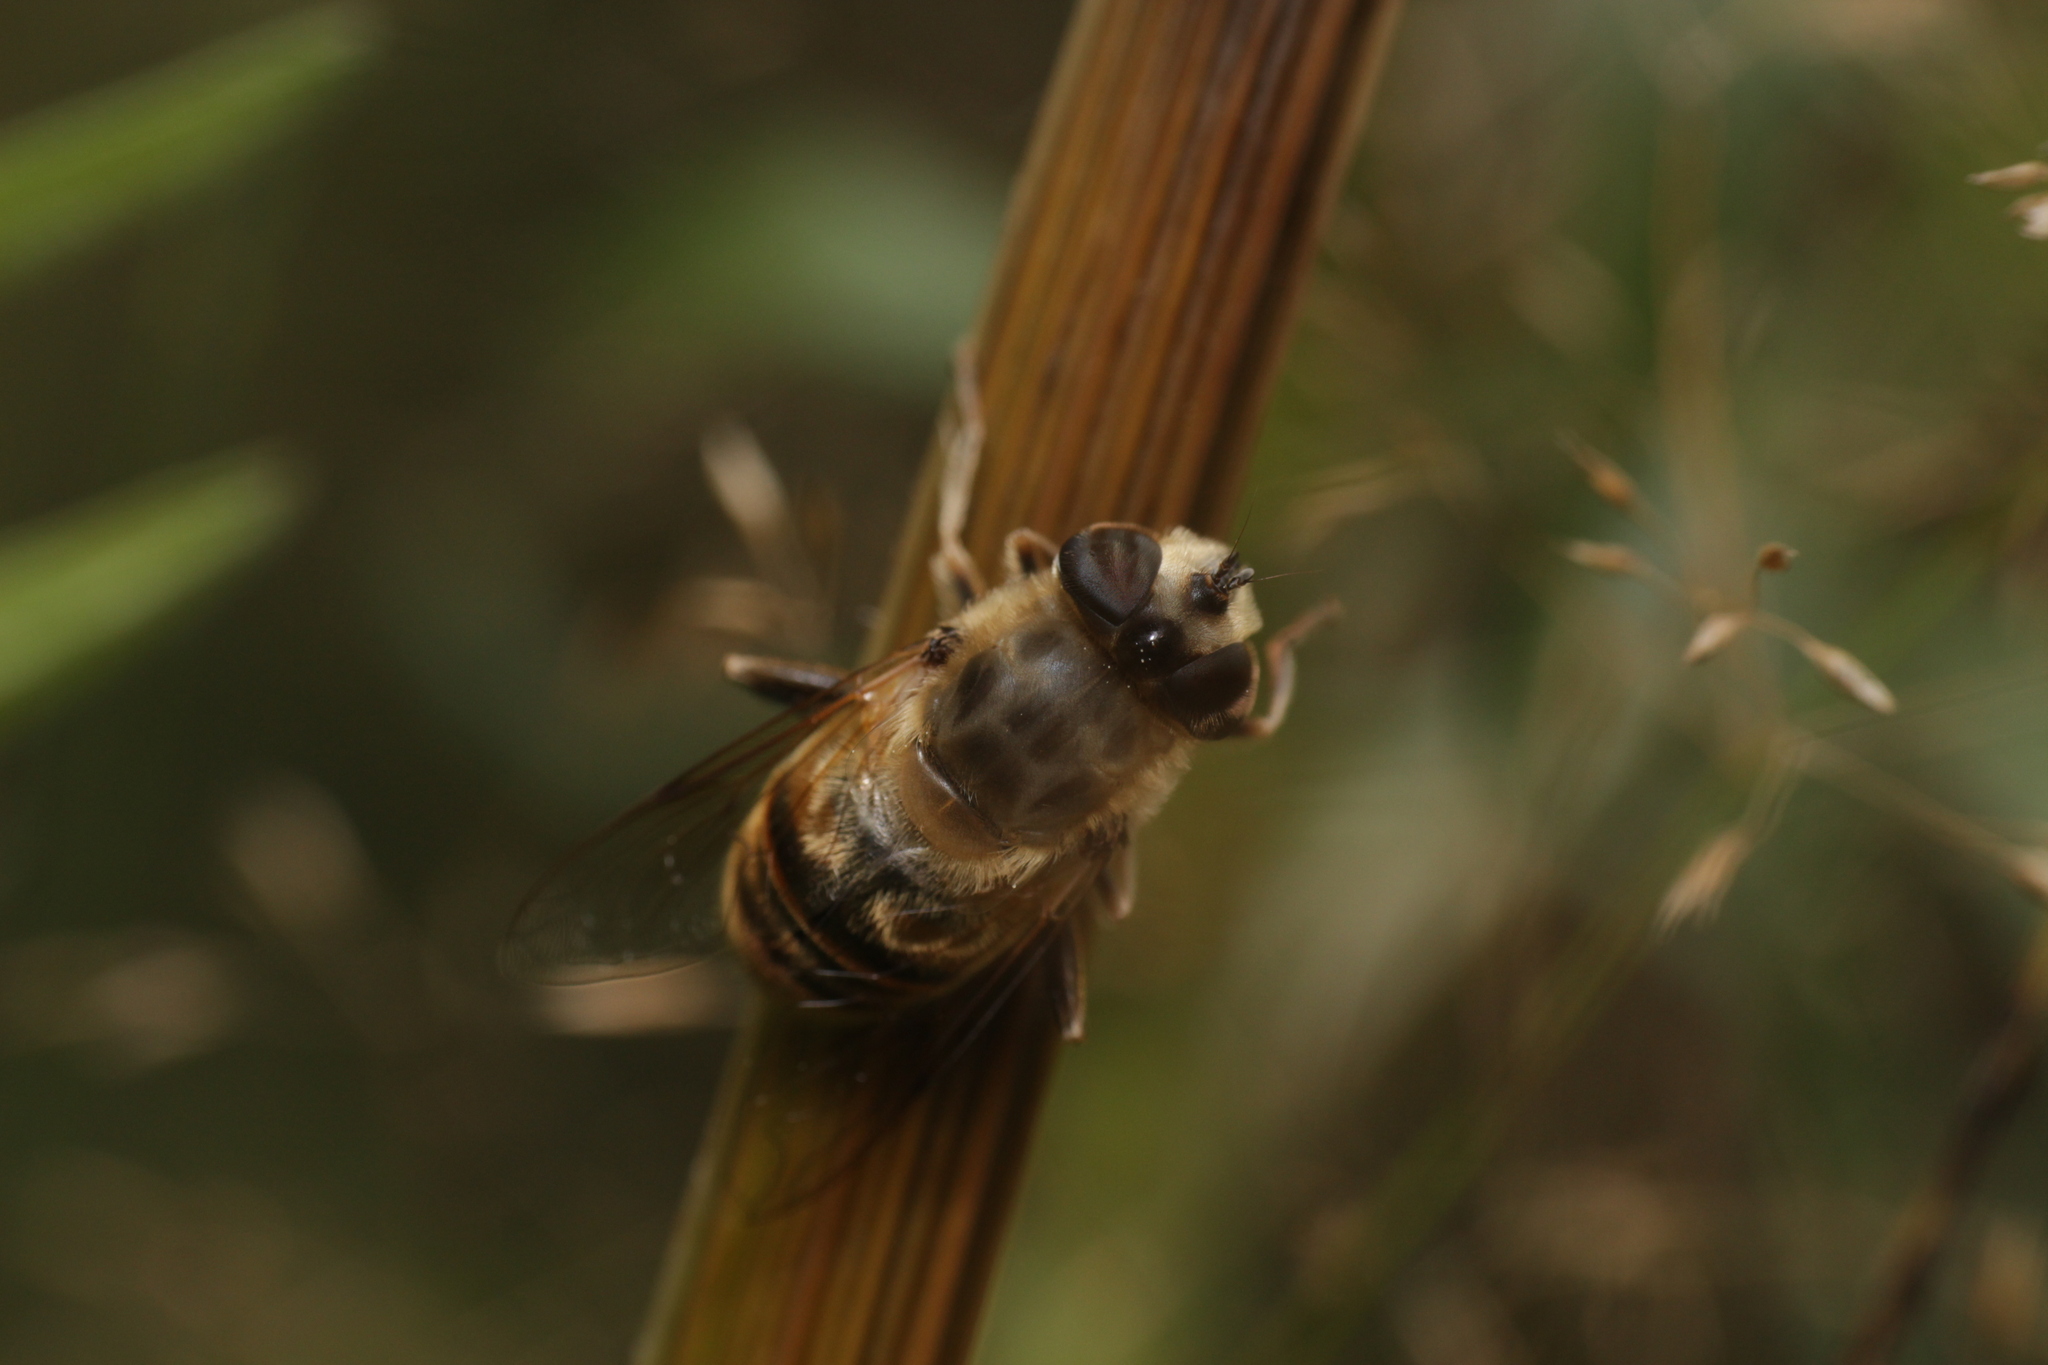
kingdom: Animalia
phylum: Arthropoda
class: Insecta
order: Diptera
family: Syrphidae
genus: Eristalis
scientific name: Eristalis tenax
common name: Drone fly
